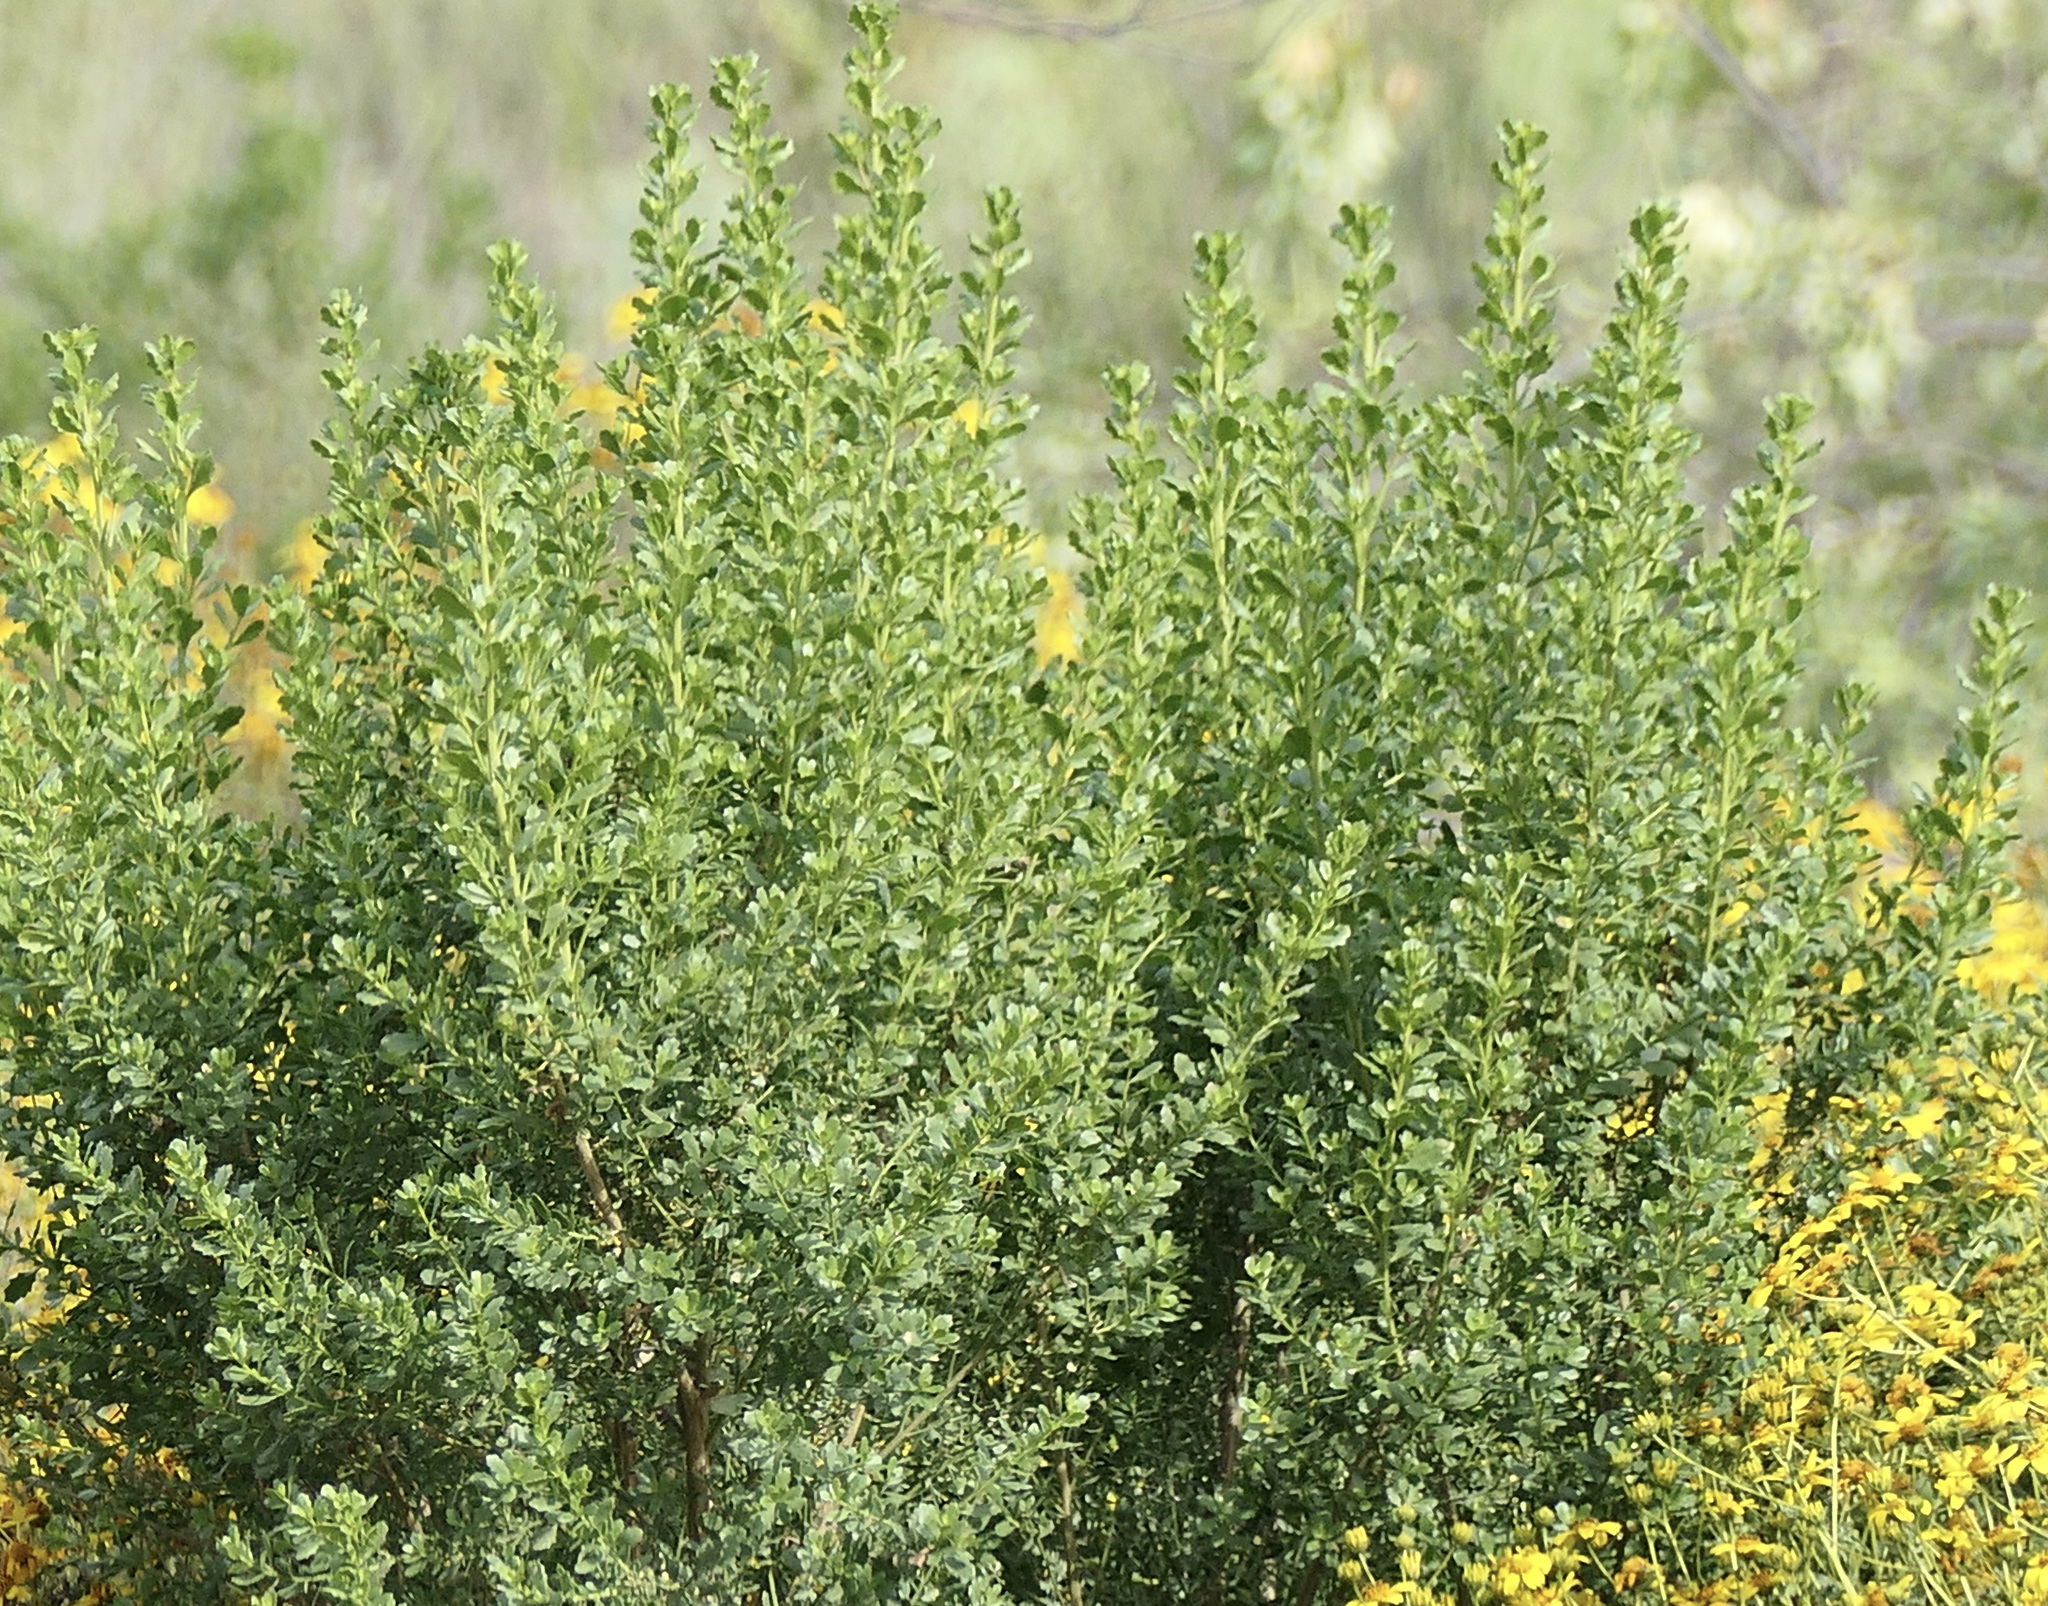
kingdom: Plantae
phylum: Tracheophyta
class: Magnoliopsida
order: Asterales
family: Asteraceae
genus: Baccharis
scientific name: Baccharis pilularis
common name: Coyotebrush
